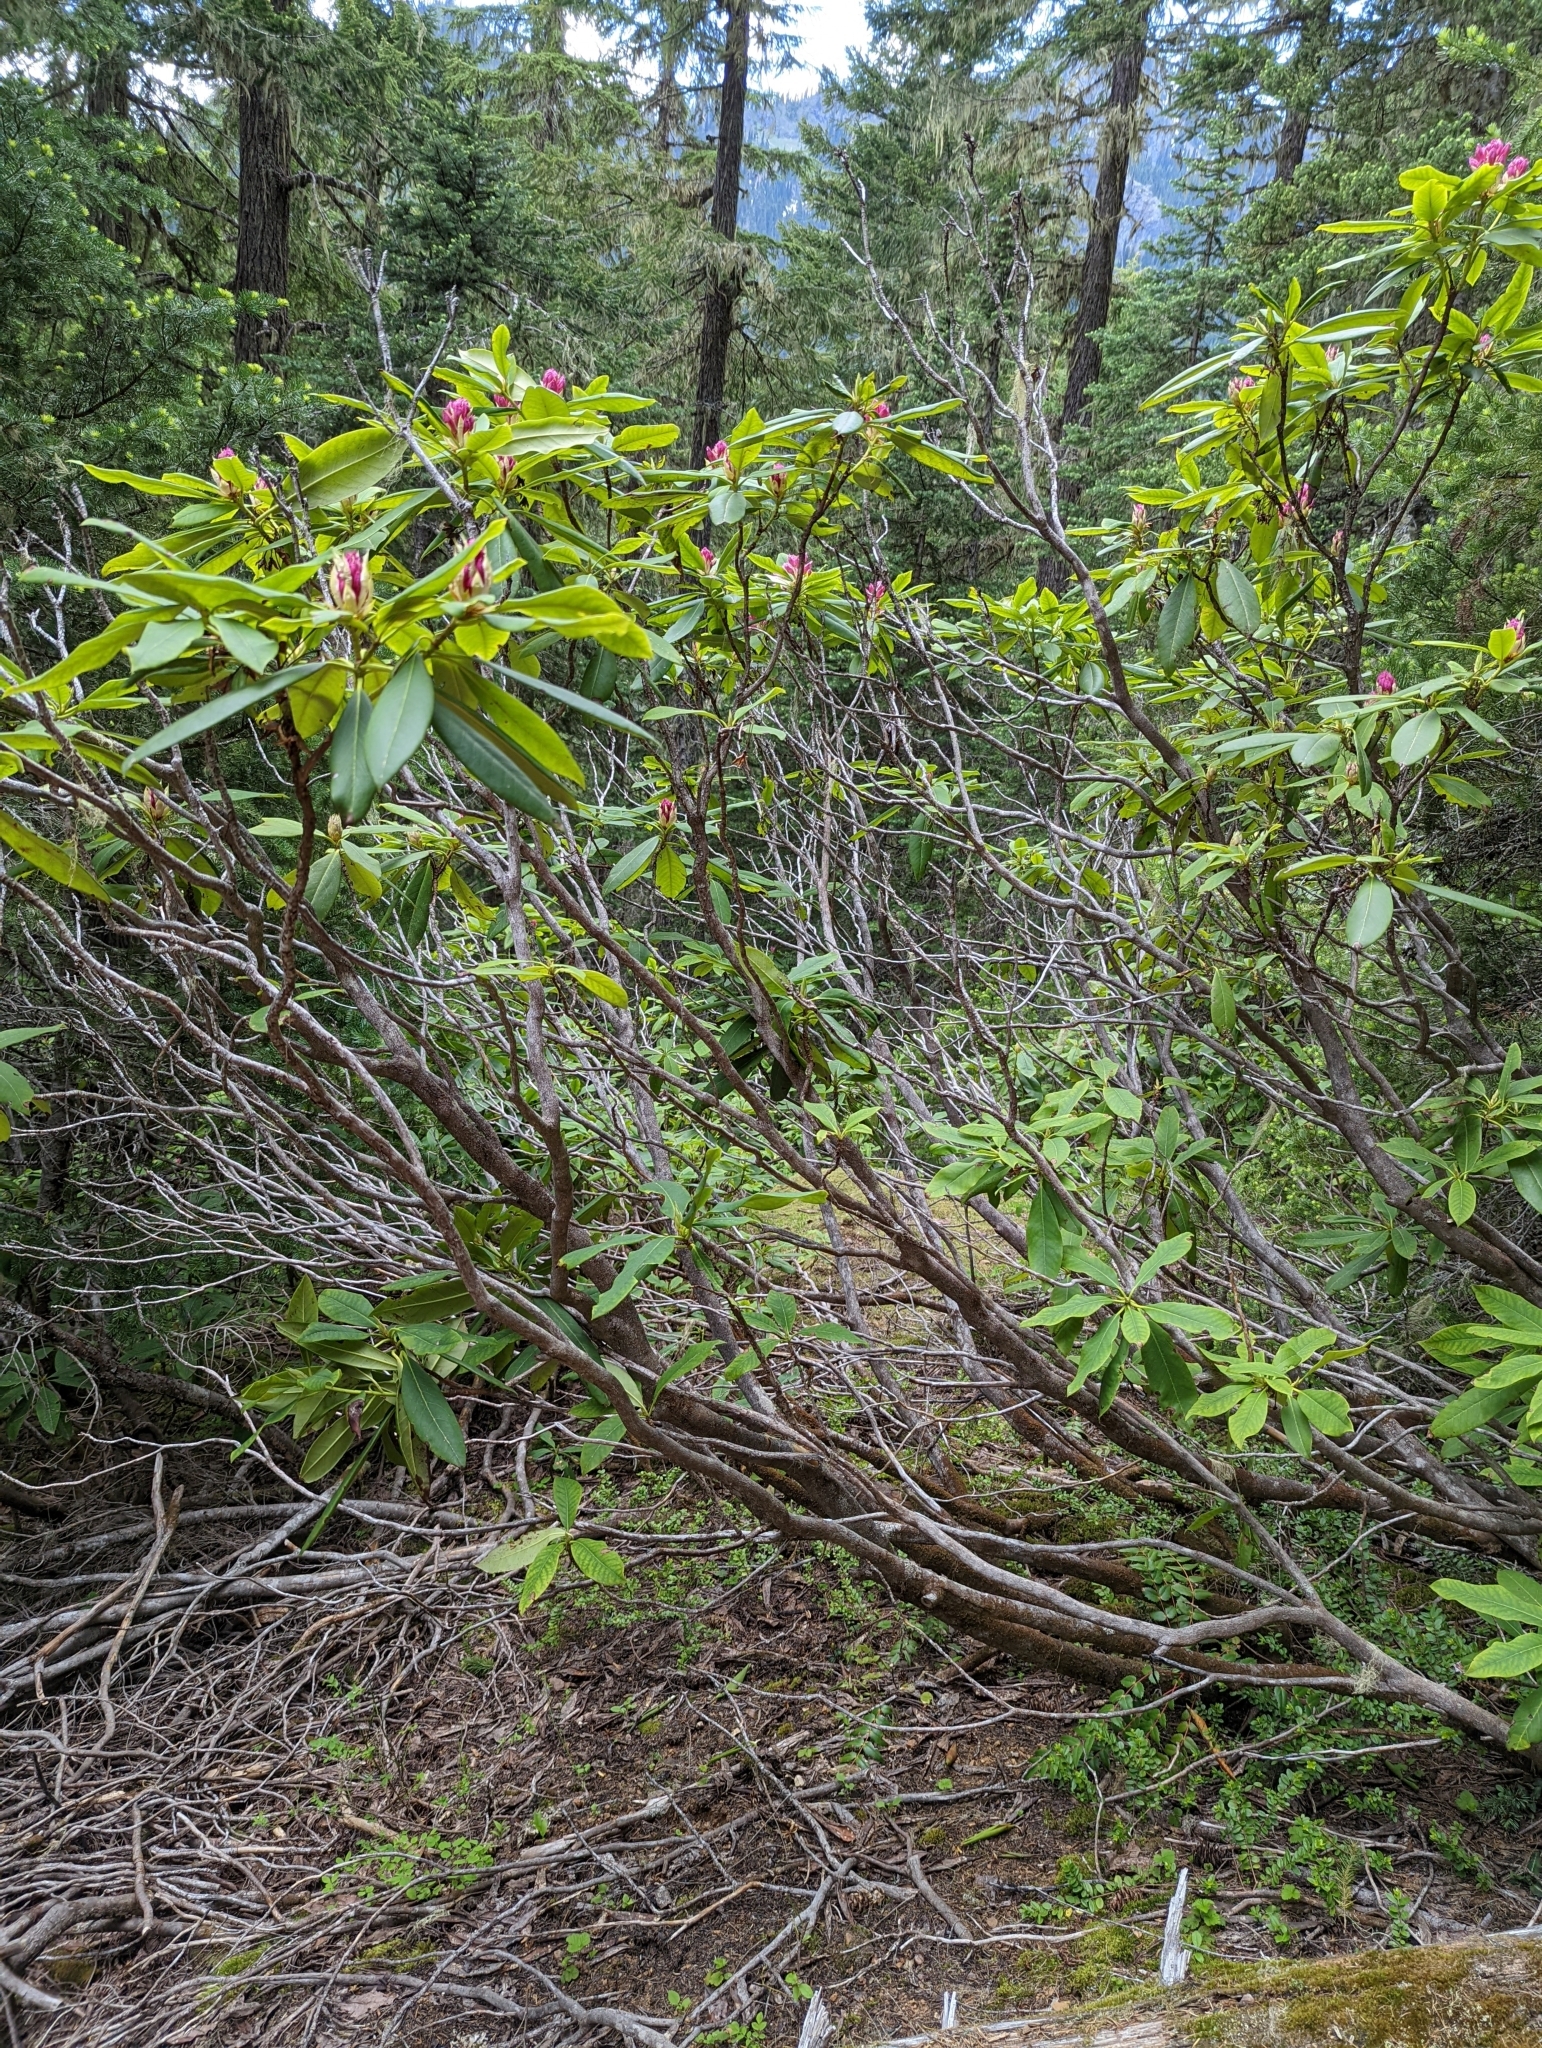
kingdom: Plantae
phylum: Tracheophyta
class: Magnoliopsida
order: Ericales
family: Ericaceae
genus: Rhododendron
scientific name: Rhododendron macrophyllum
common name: California rose bay
